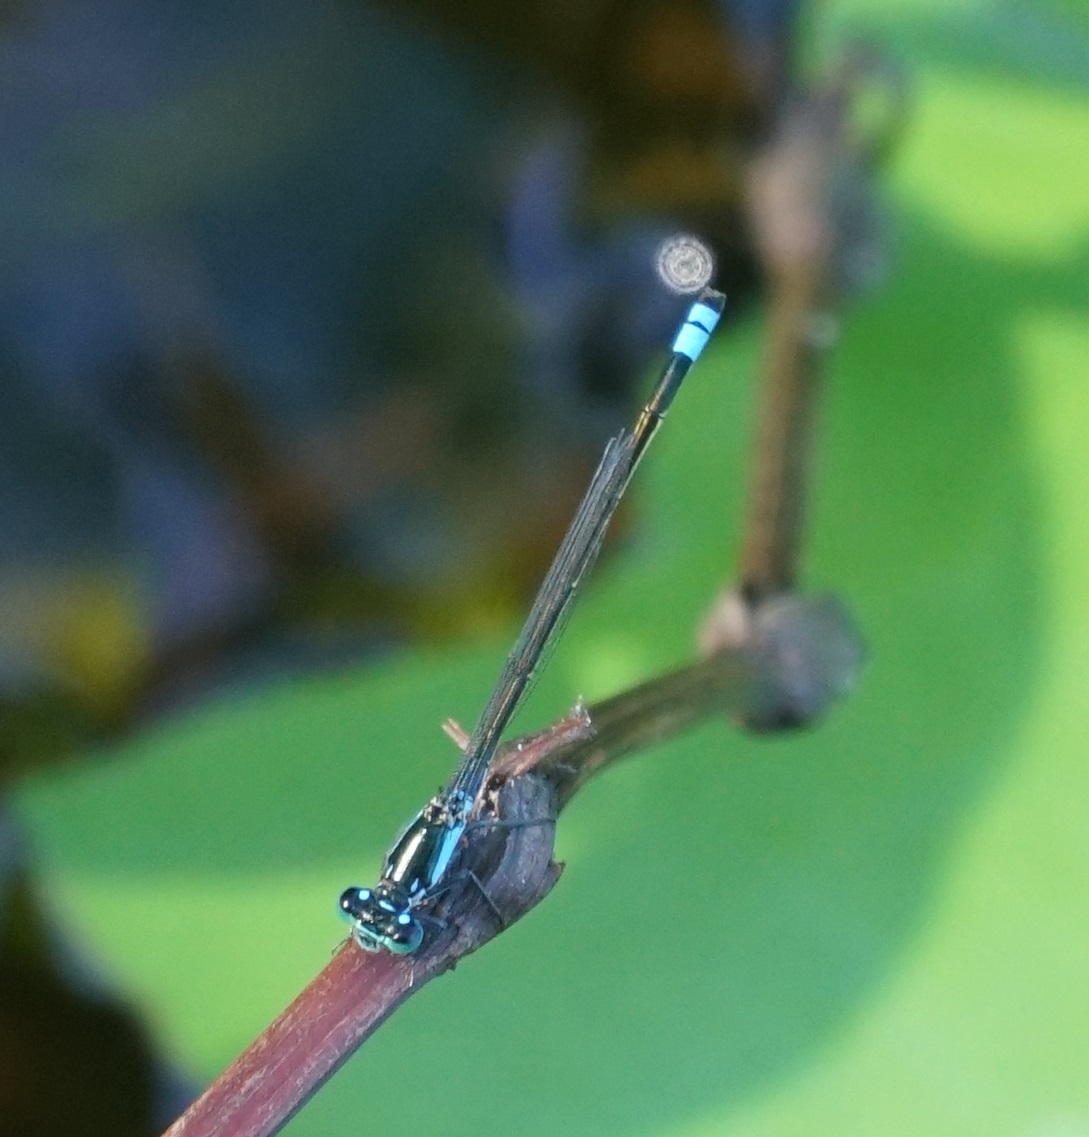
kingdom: Animalia
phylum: Arthropoda
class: Insecta
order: Odonata
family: Coenagrionidae
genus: Ischnura
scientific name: Ischnura heterosticta
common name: Common bluetail
